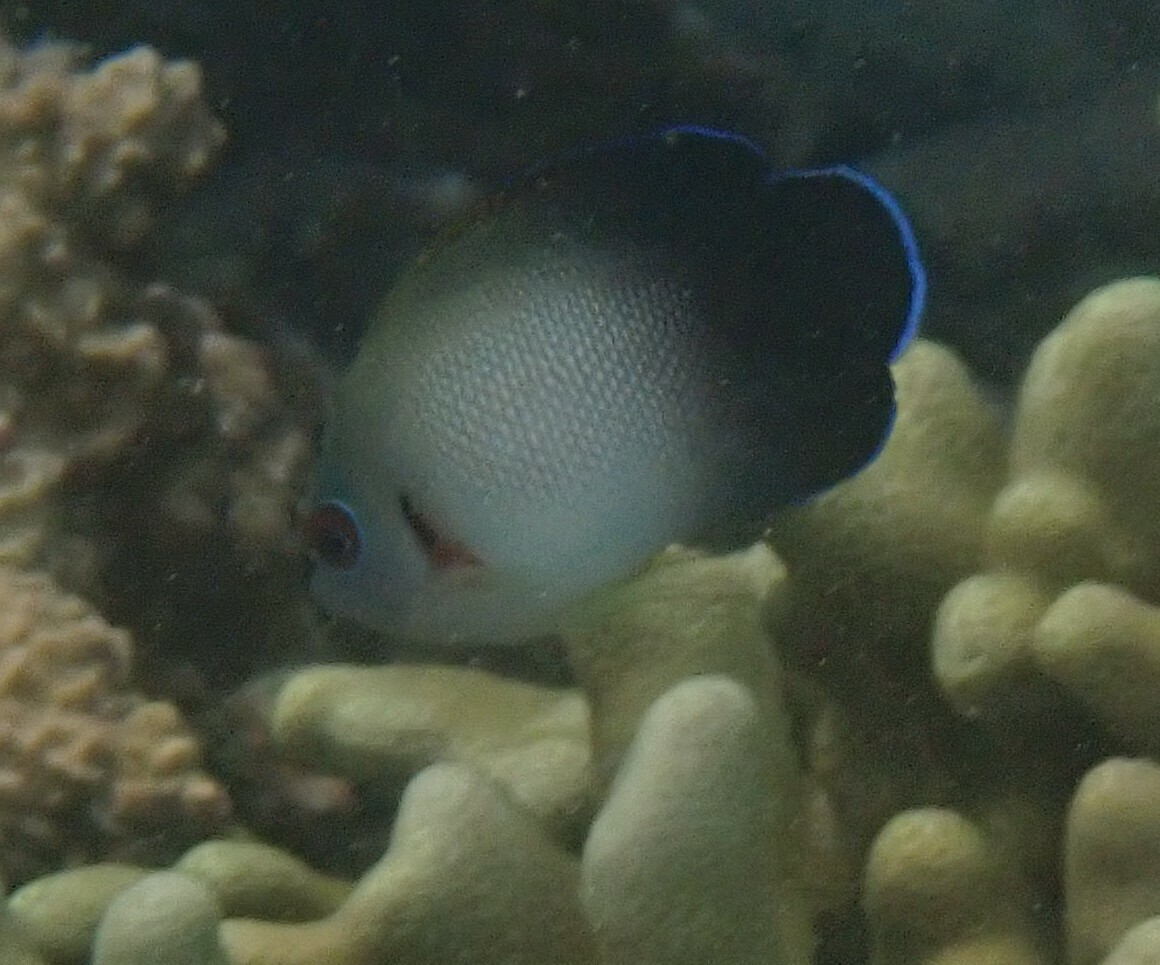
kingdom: Animalia
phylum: Chordata
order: Perciformes
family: Pomacanthidae
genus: Centropyge
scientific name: Centropyge vrolikii
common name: Pearlscale angelfish
